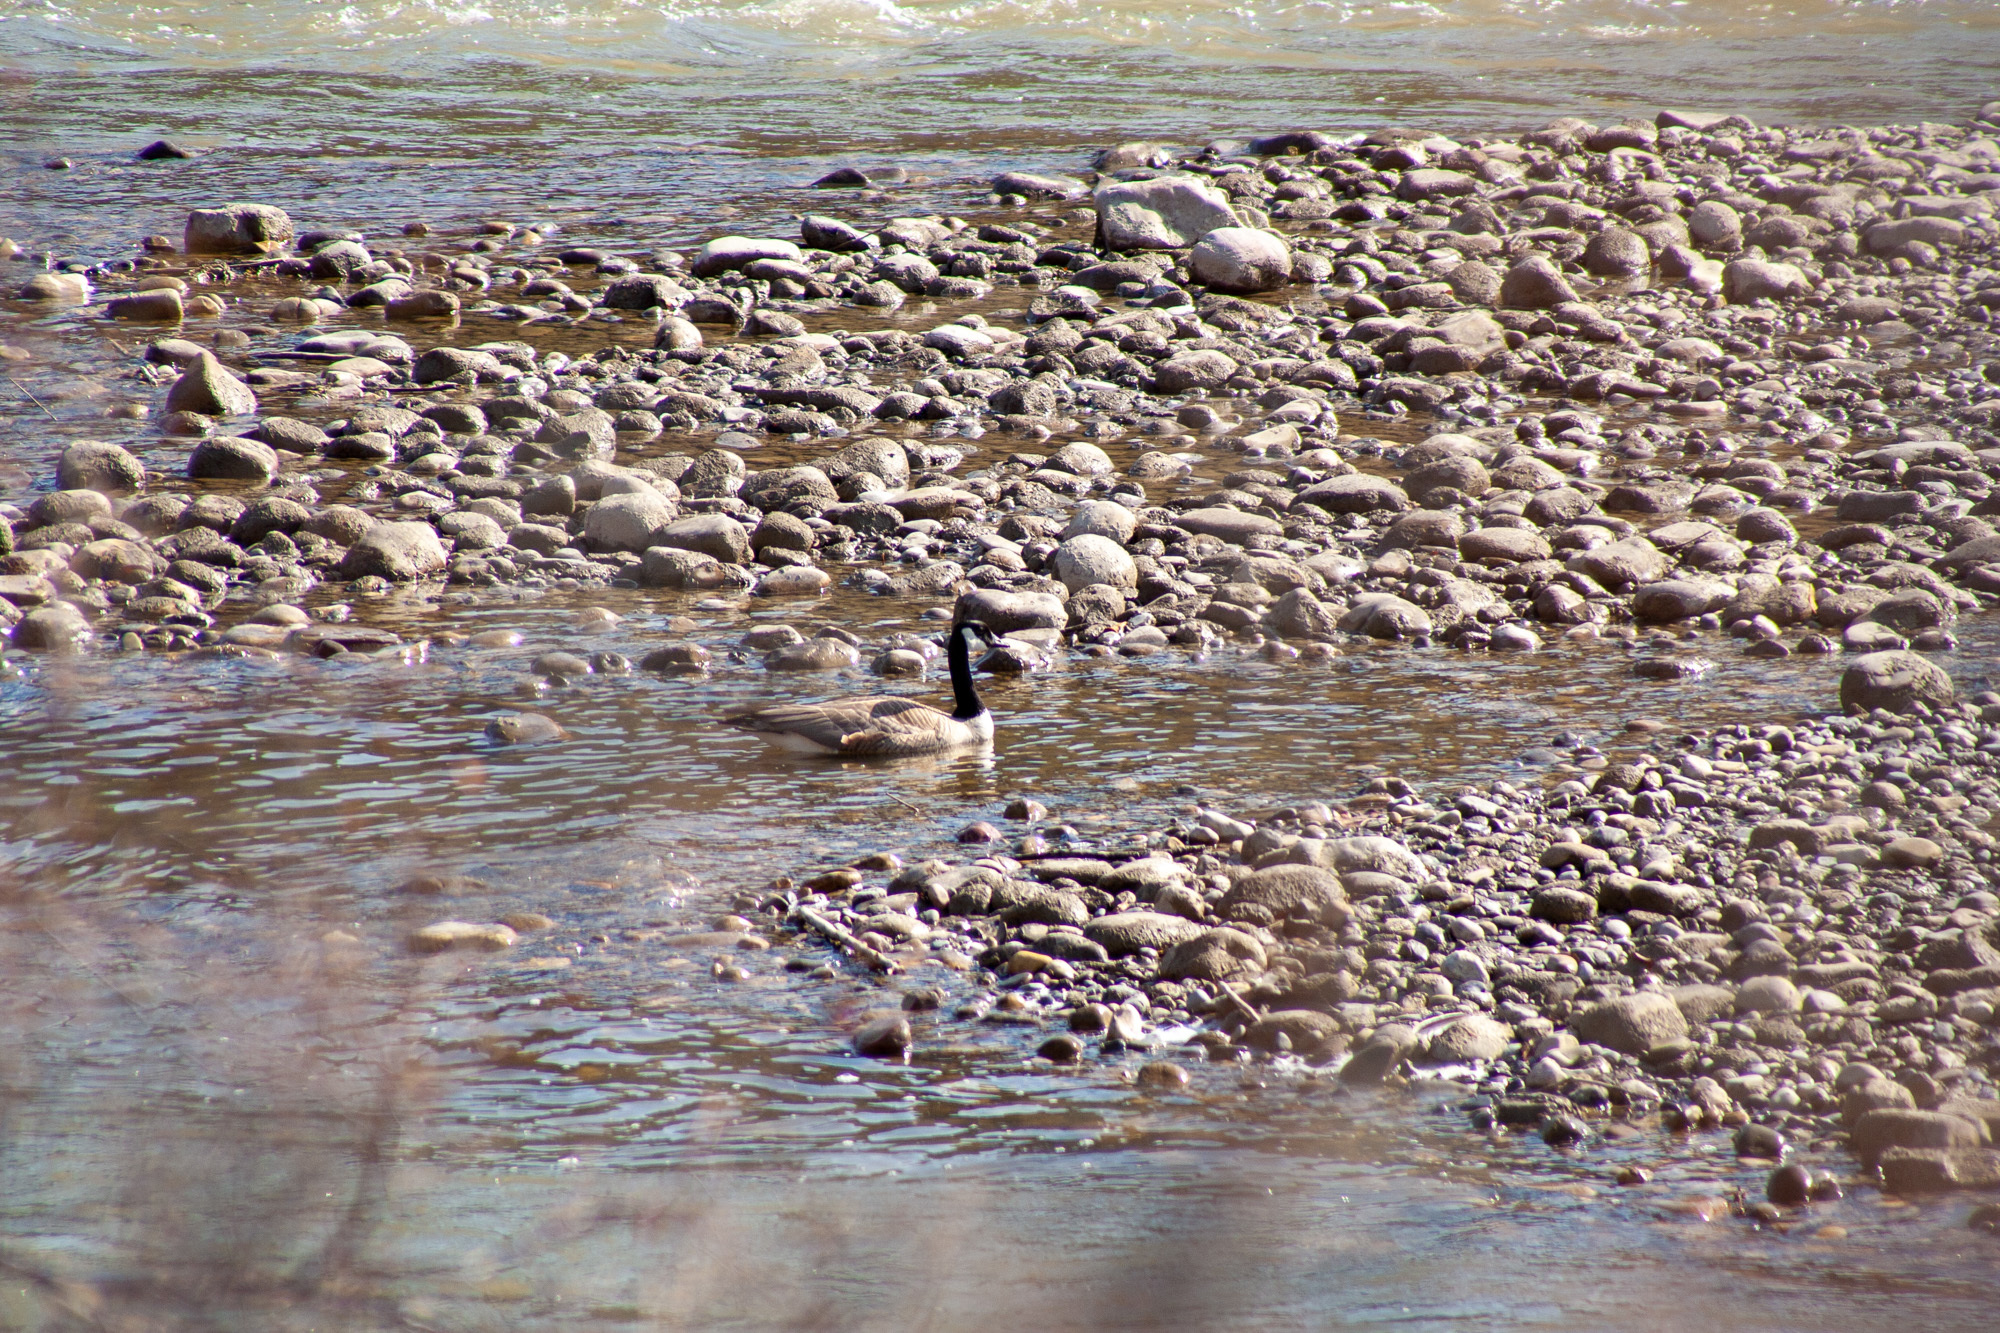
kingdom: Animalia
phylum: Chordata
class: Aves
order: Anseriformes
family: Anatidae
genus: Branta
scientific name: Branta canadensis
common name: Canada goose
